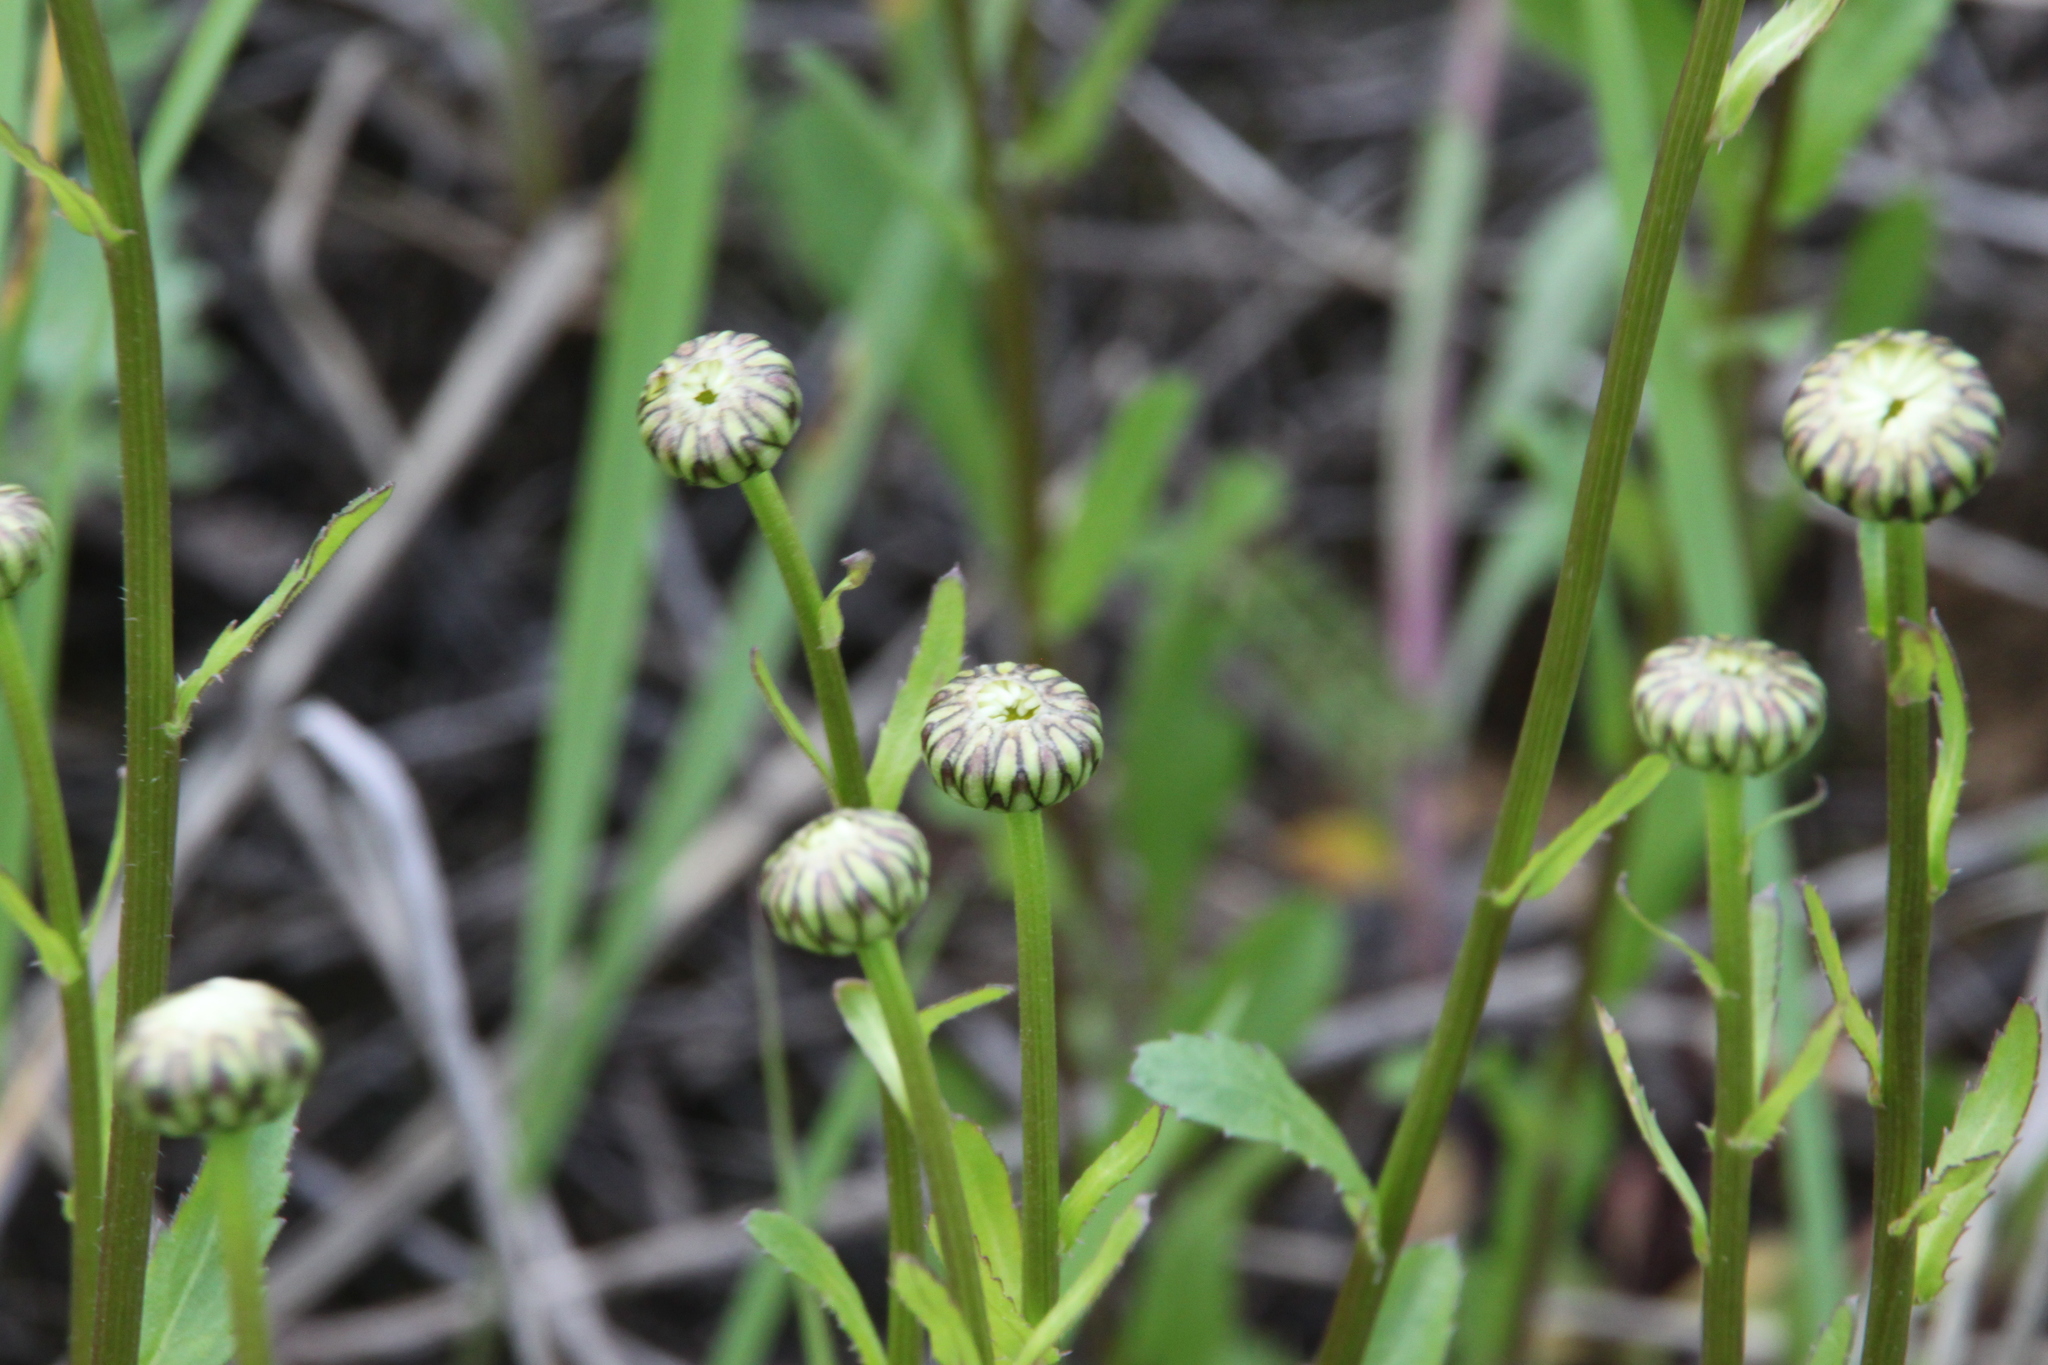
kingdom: Plantae
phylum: Tracheophyta
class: Magnoliopsida
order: Asterales
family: Asteraceae
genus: Leucanthemum
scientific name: Leucanthemum vulgare
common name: Oxeye daisy
